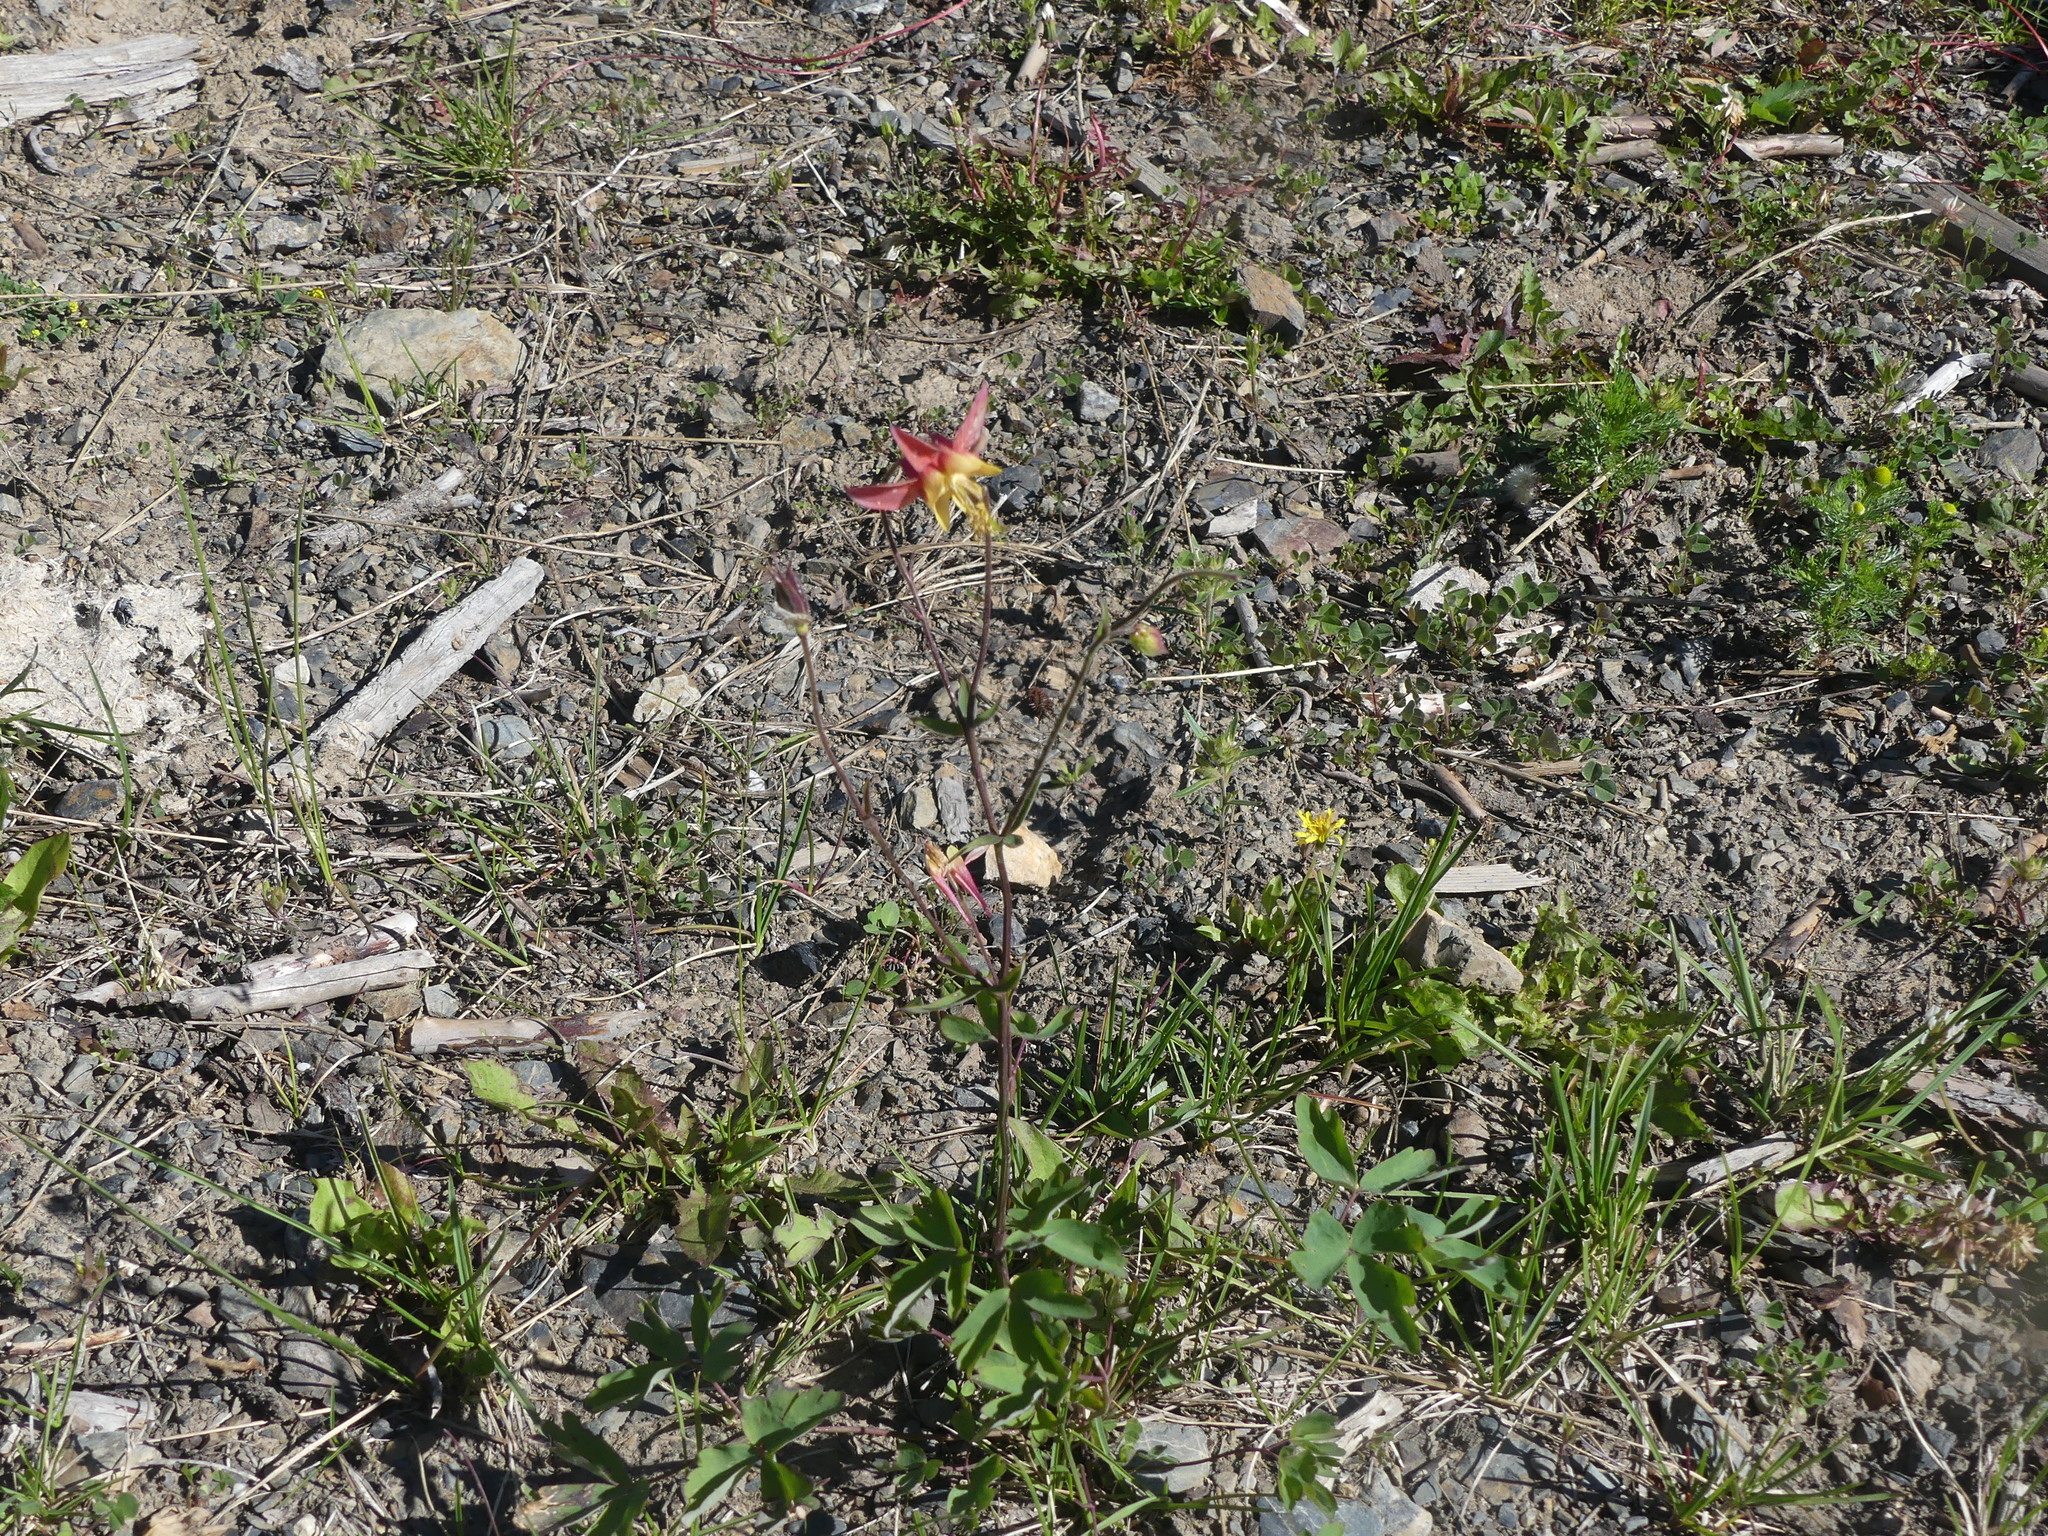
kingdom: Plantae
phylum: Tracheophyta
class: Magnoliopsida
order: Ranunculales
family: Ranunculaceae
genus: Aquilegia
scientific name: Aquilegia formosa
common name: Sitka columbine
